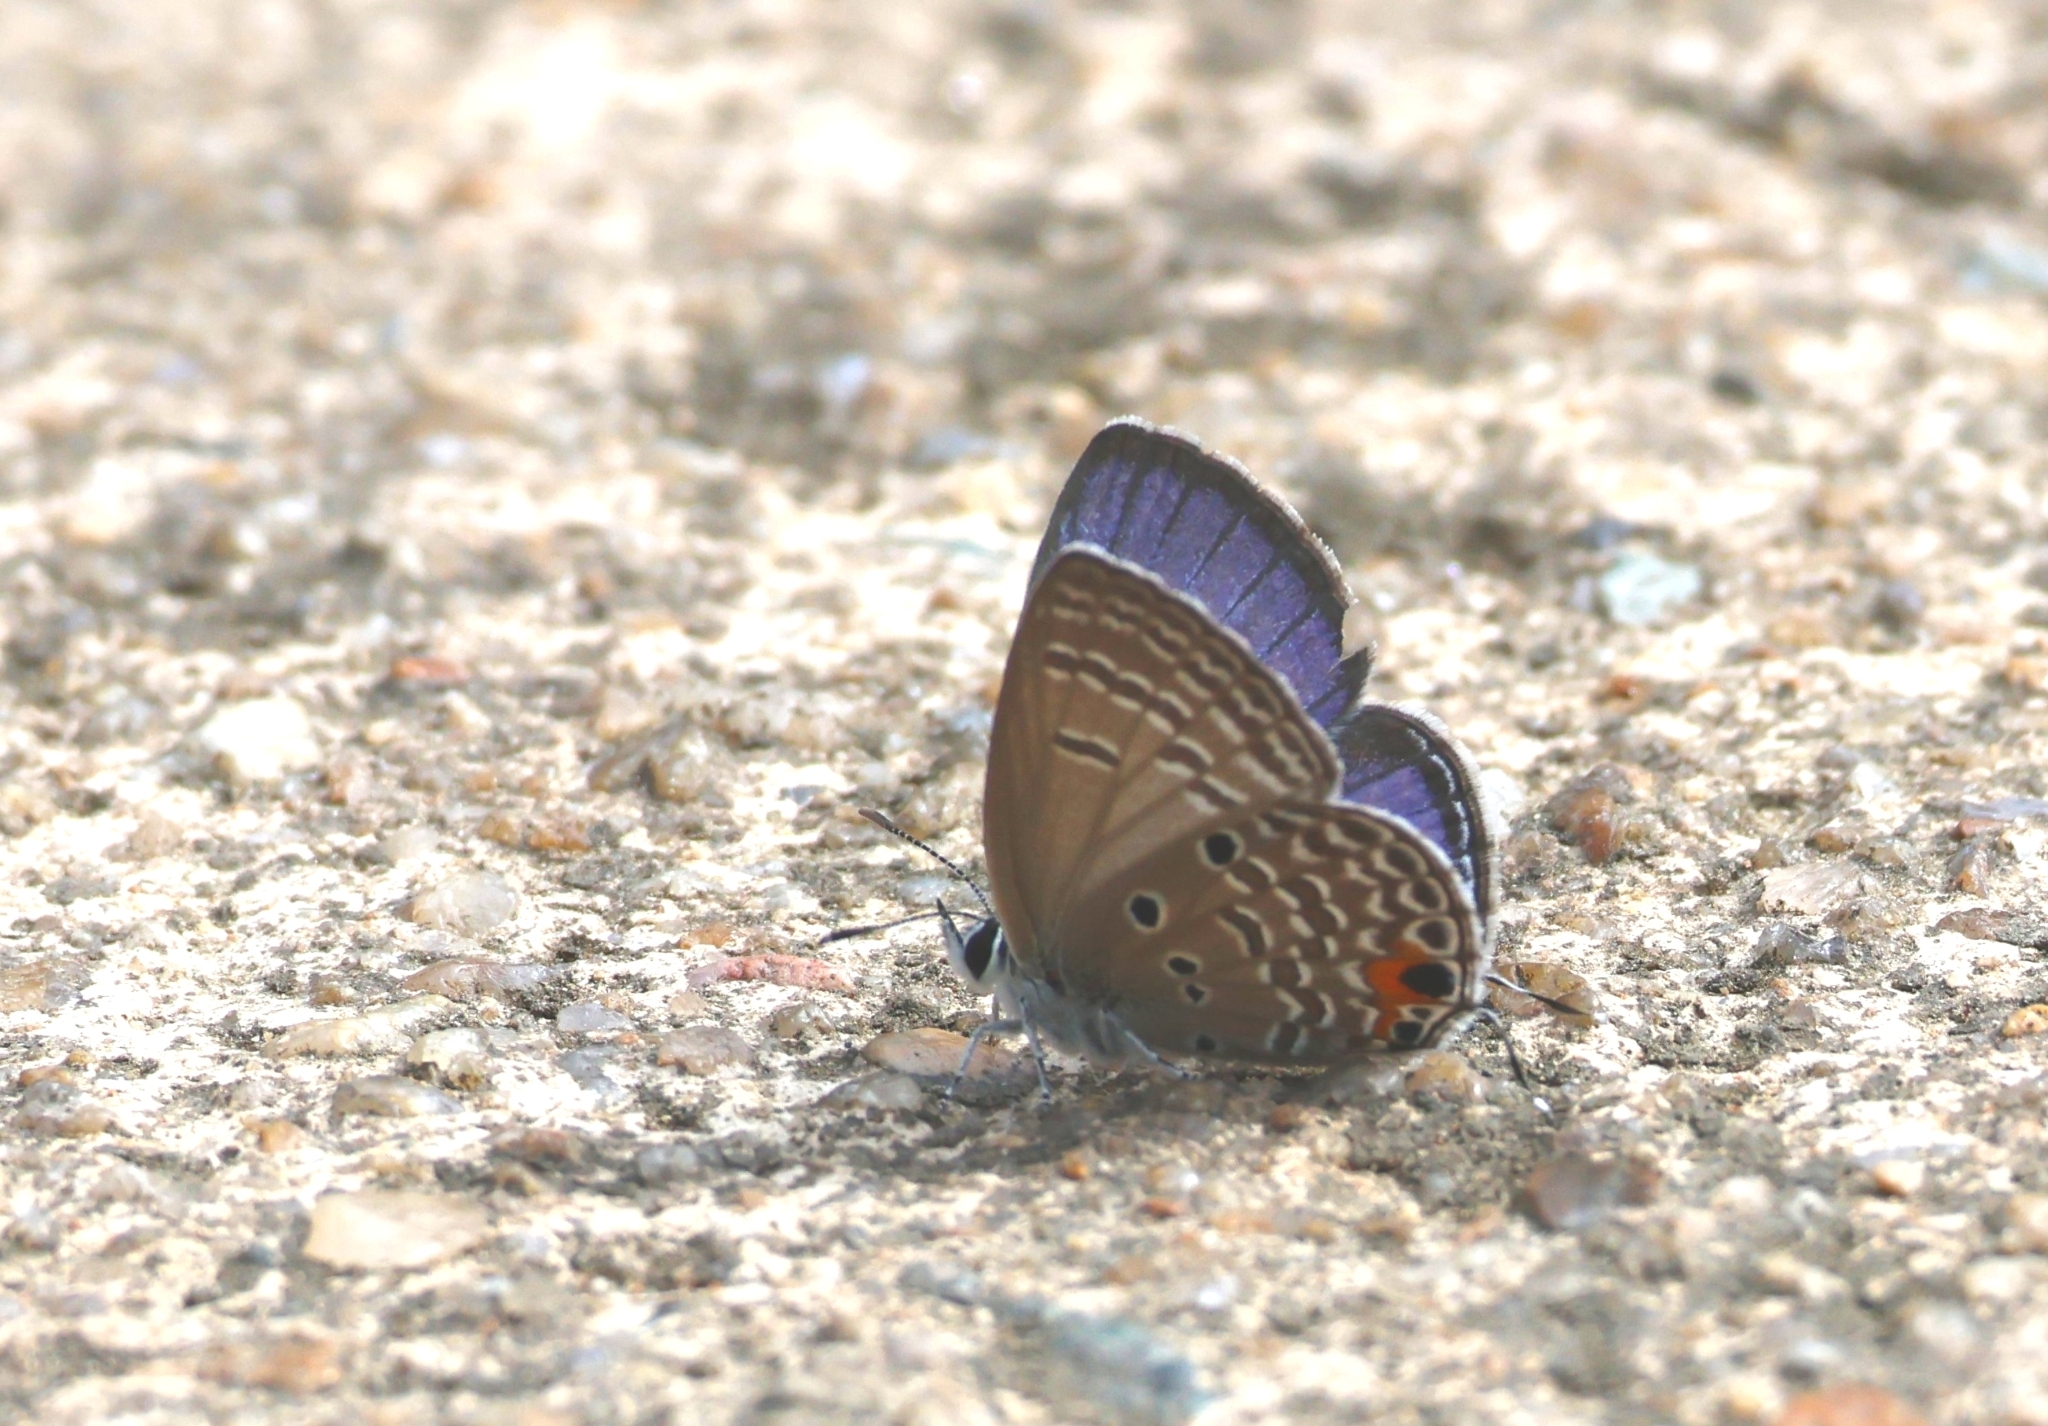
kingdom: Animalia
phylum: Arthropoda
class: Insecta
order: Lepidoptera
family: Lycaenidae
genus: Luthrodes
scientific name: Luthrodes pandava
